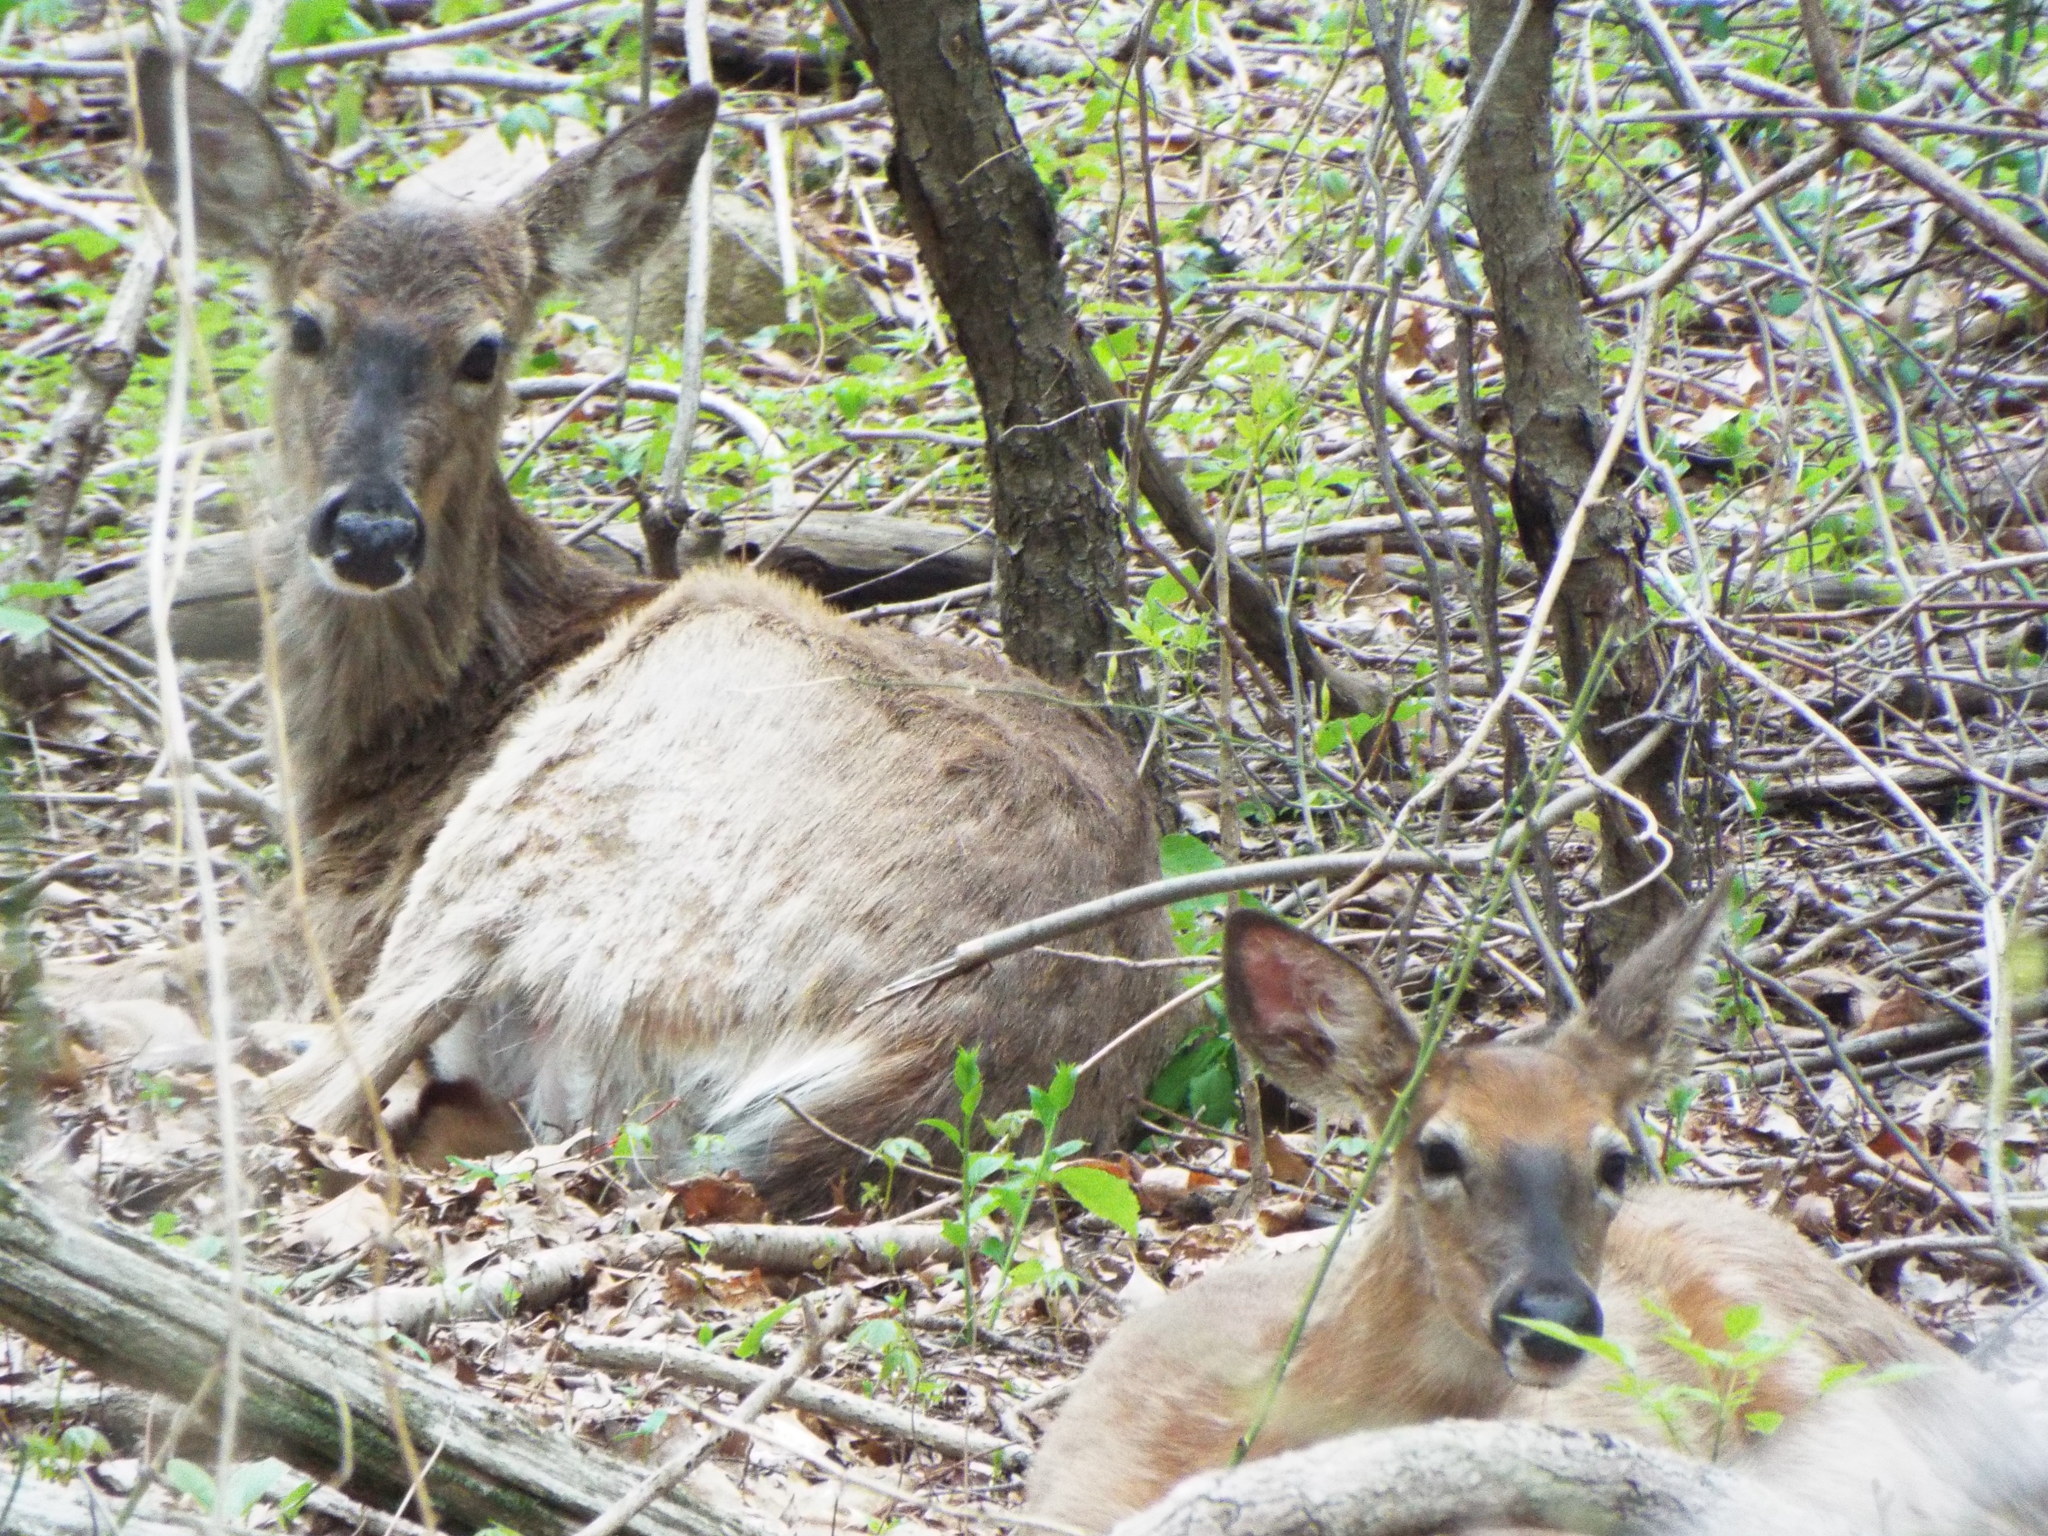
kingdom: Animalia
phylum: Chordata
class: Mammalia
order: Artiodactyla
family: Cervidae
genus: Odocoileus
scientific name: Odocoileus virginianus
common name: White-tailed deer
